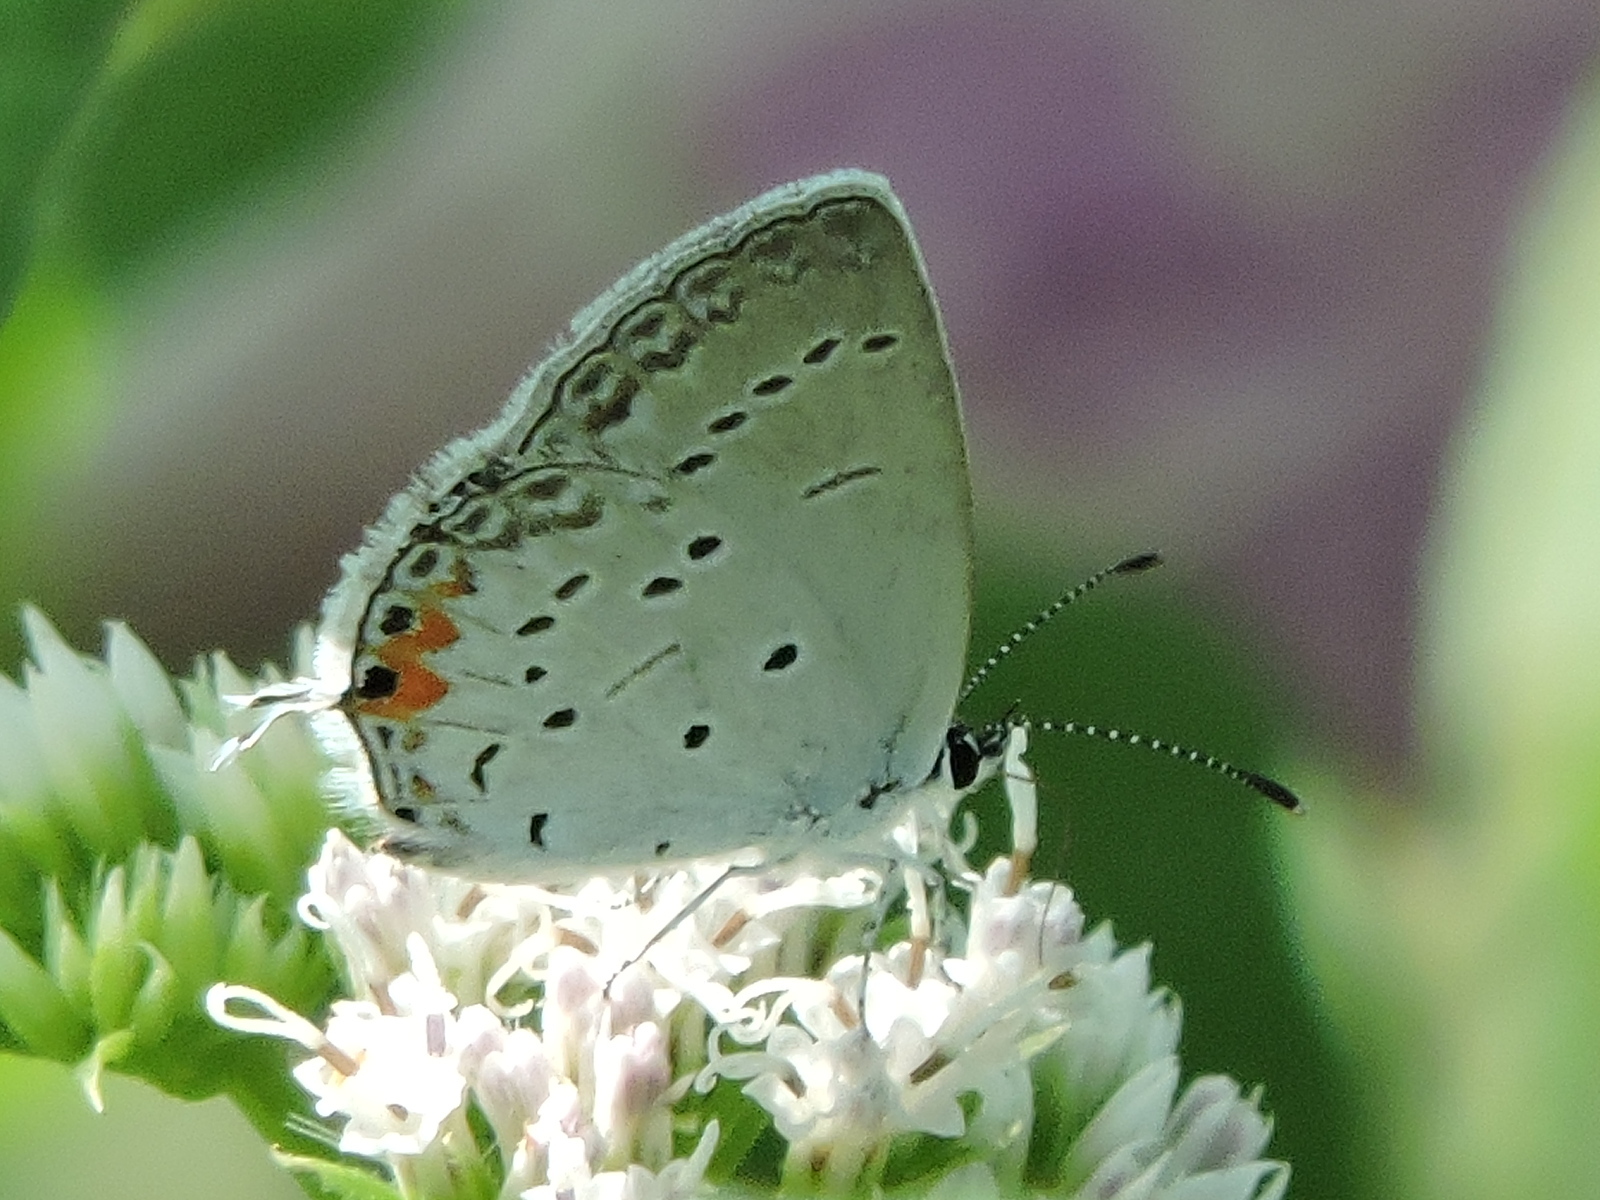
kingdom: Animalia
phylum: Arthropoda
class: Insecta
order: Lepidoptera
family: Lycaenidae
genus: Elkalyce
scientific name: Elkalyce comyntas
